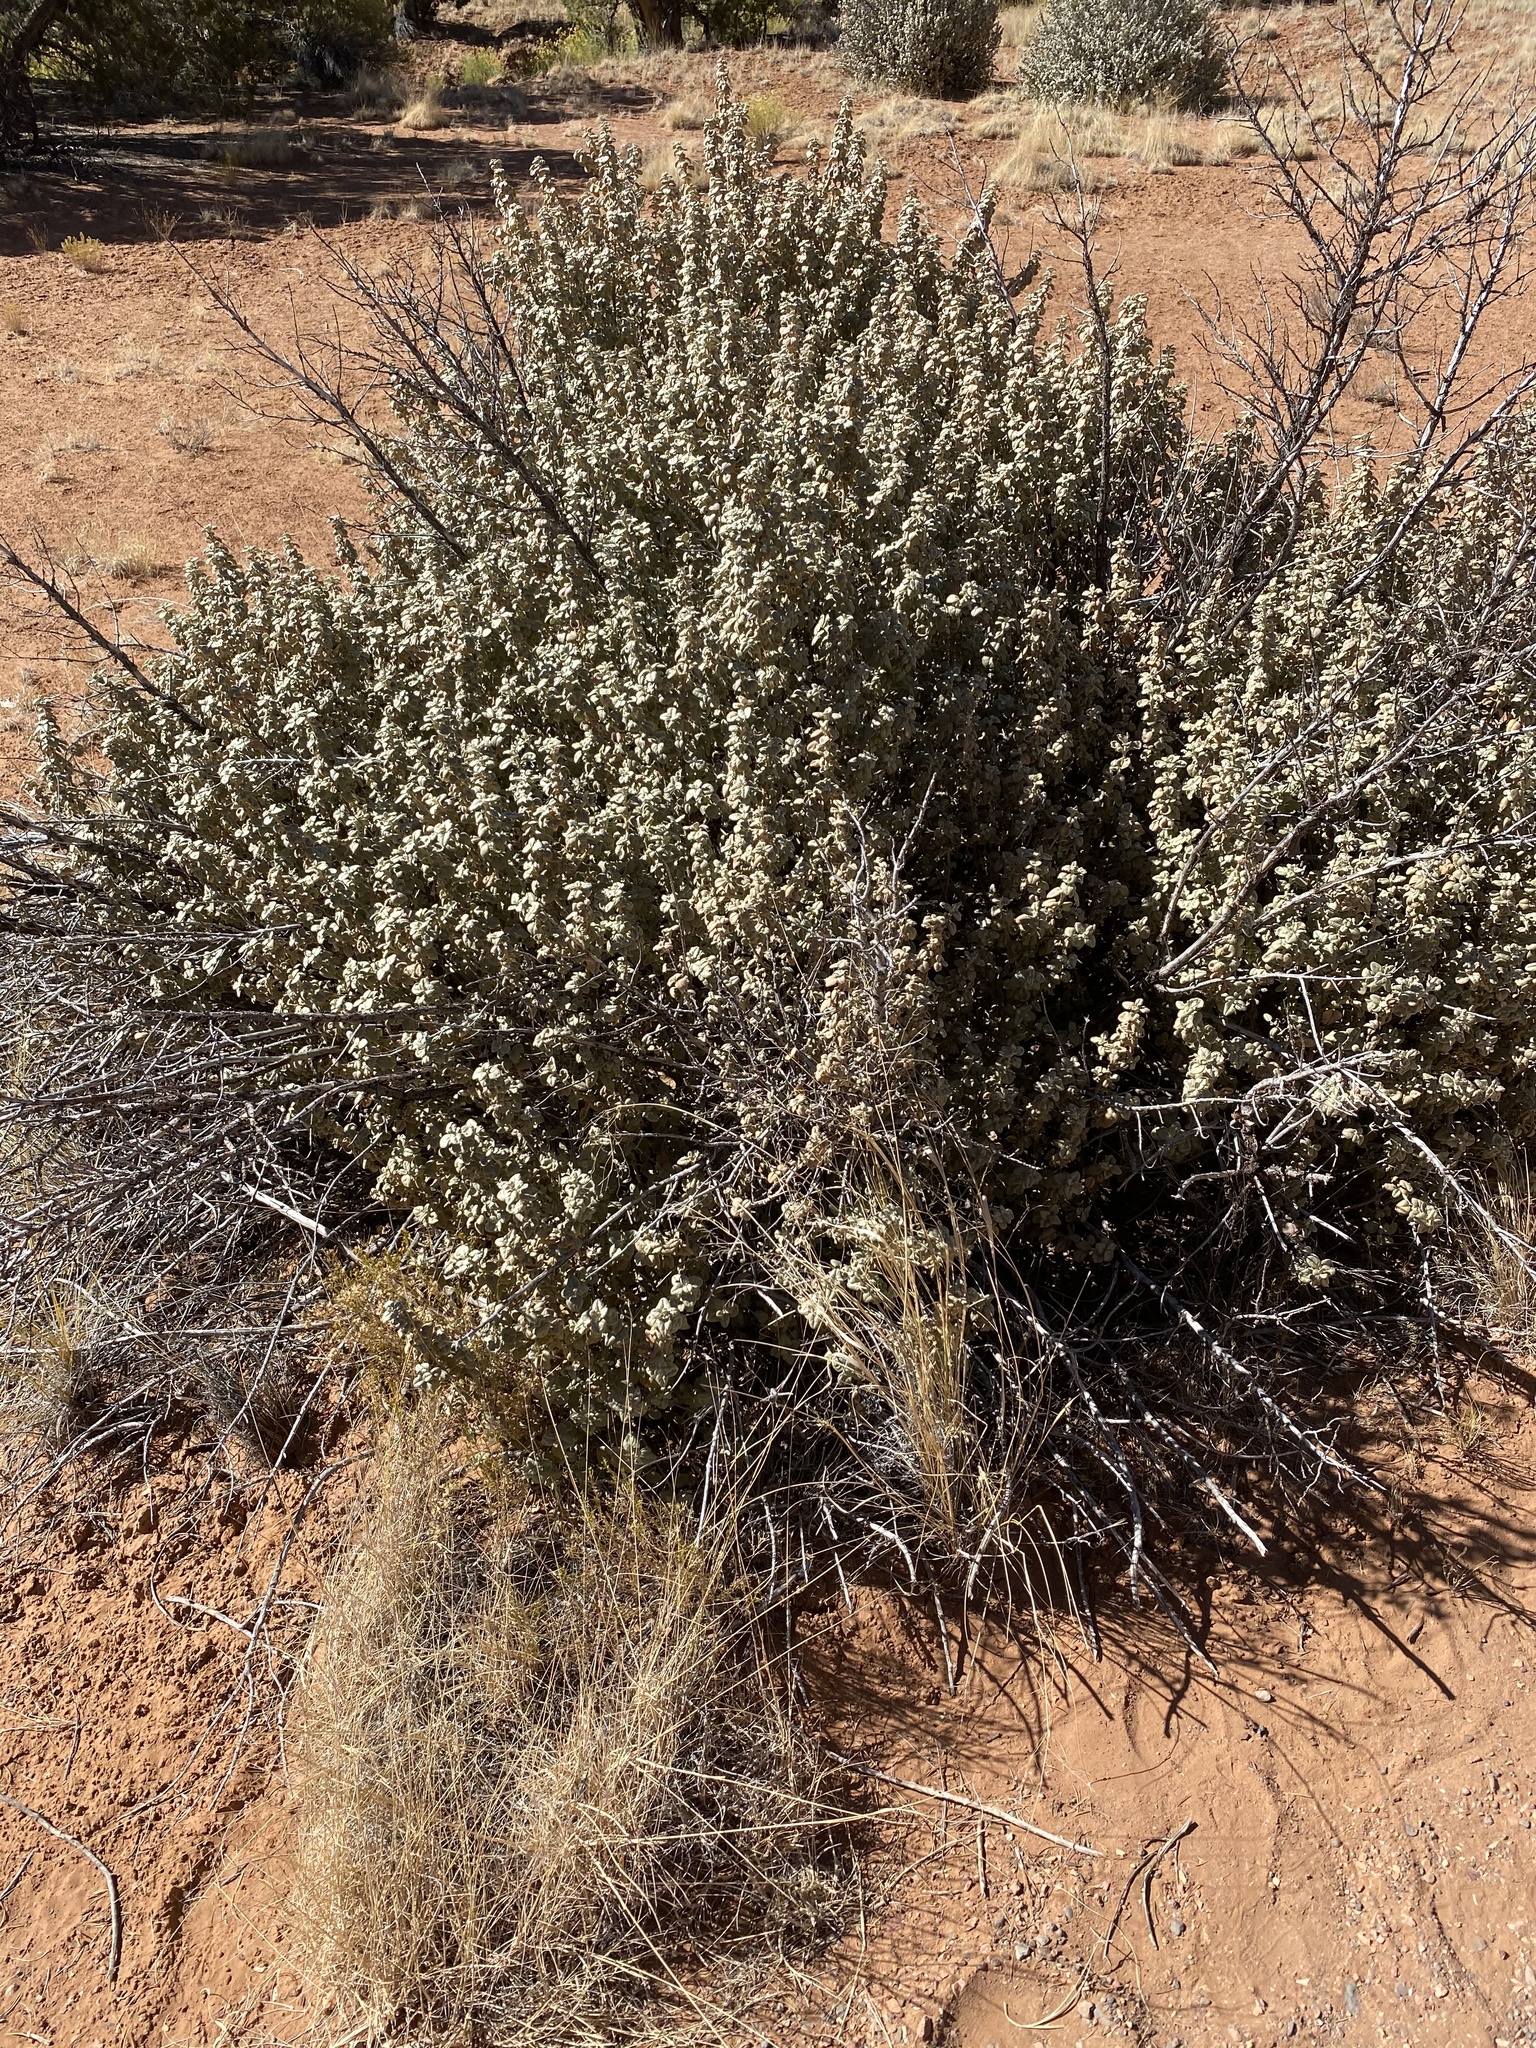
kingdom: Plantae
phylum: Tracheophyta
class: Magnoliopsida
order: Rosales
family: Elaeagnaceae
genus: Shepherdia
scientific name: Shepherdia rotundifolia
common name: Silverscale
